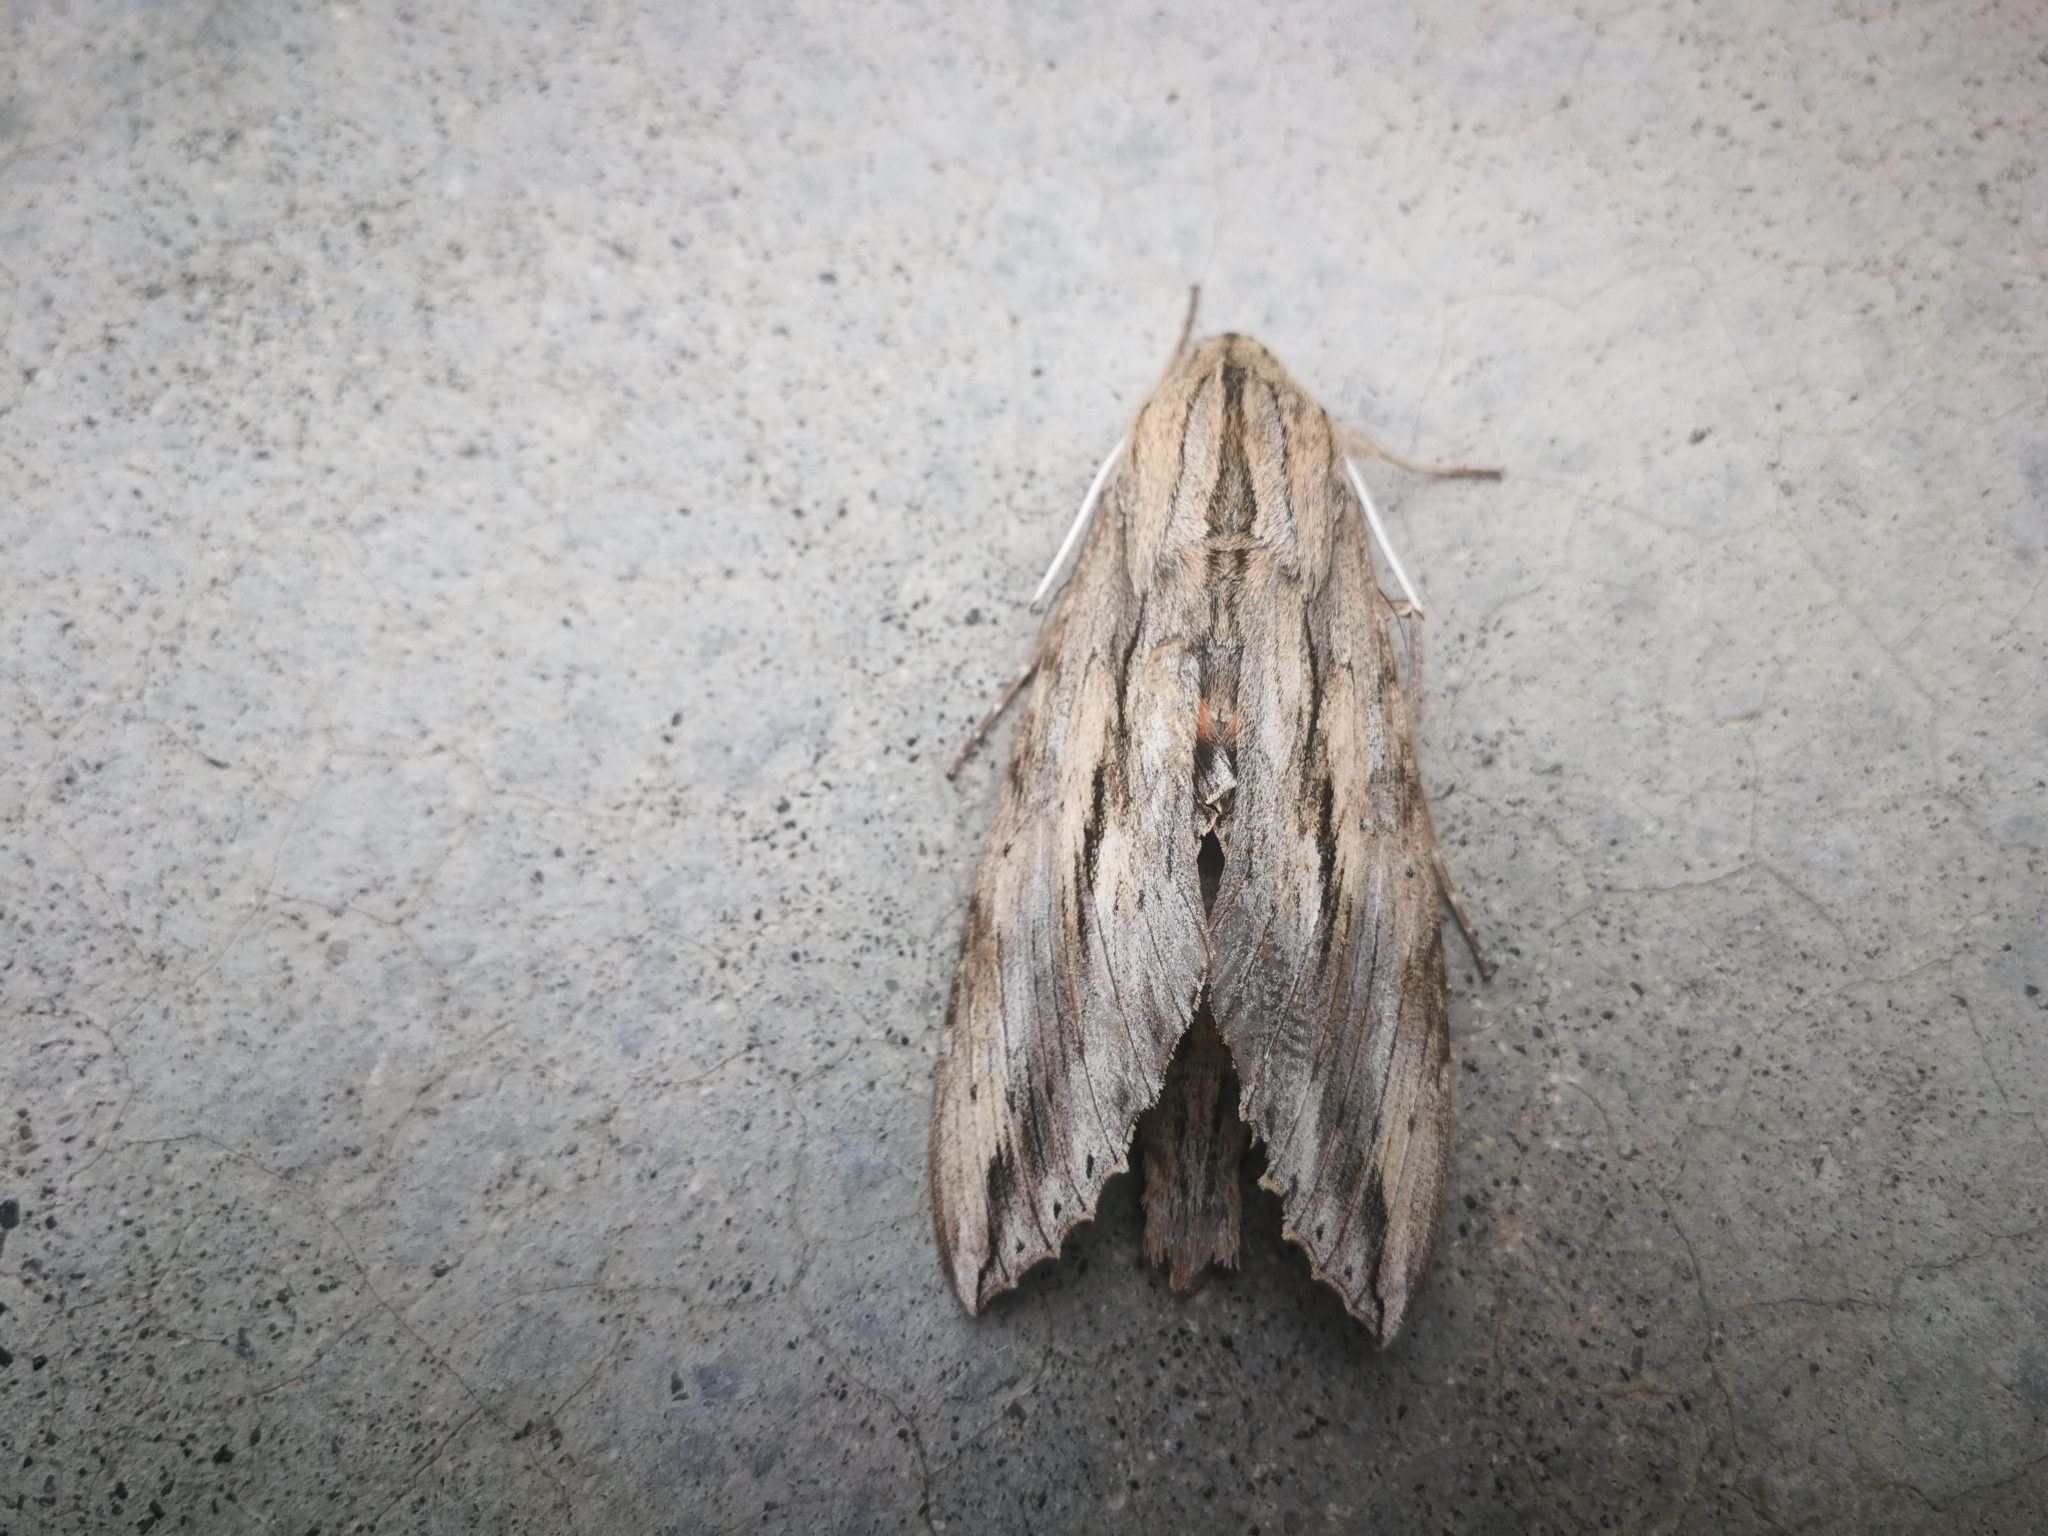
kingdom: Animalia
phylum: Arthropoda
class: Insecta
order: Lepidoptera
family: Sphingidae
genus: Erinnyis
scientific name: Erinnyis ello
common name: Ello sphinx
